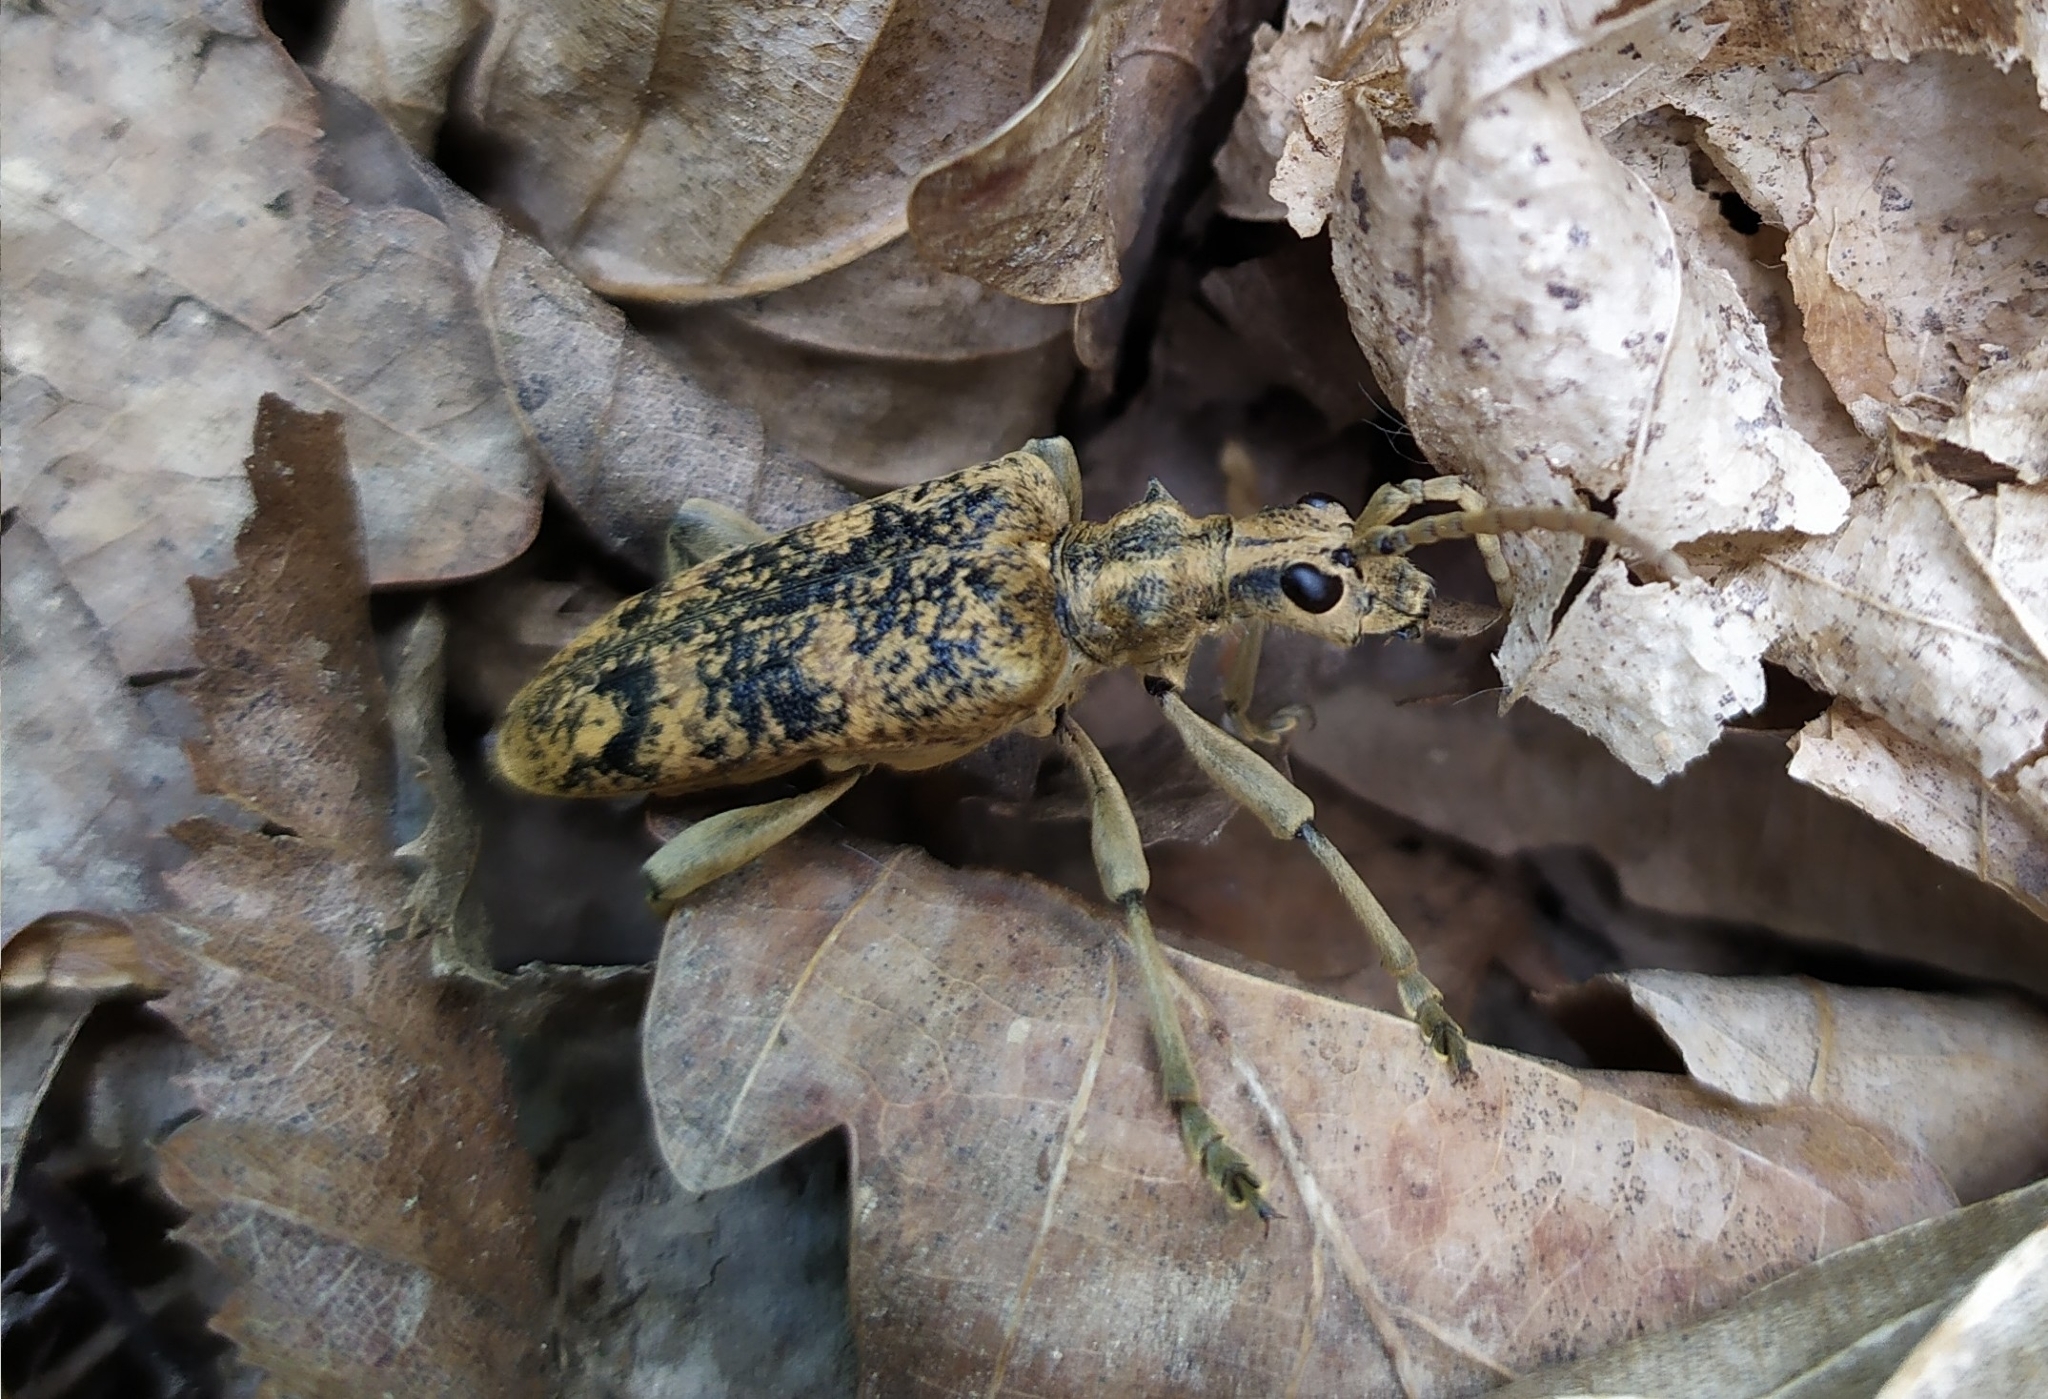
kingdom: Animalia
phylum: Arthropoda
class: Insecta
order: Coleoptera
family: Cerambycidae
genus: Rhagium
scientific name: Rhagium sycophanta
